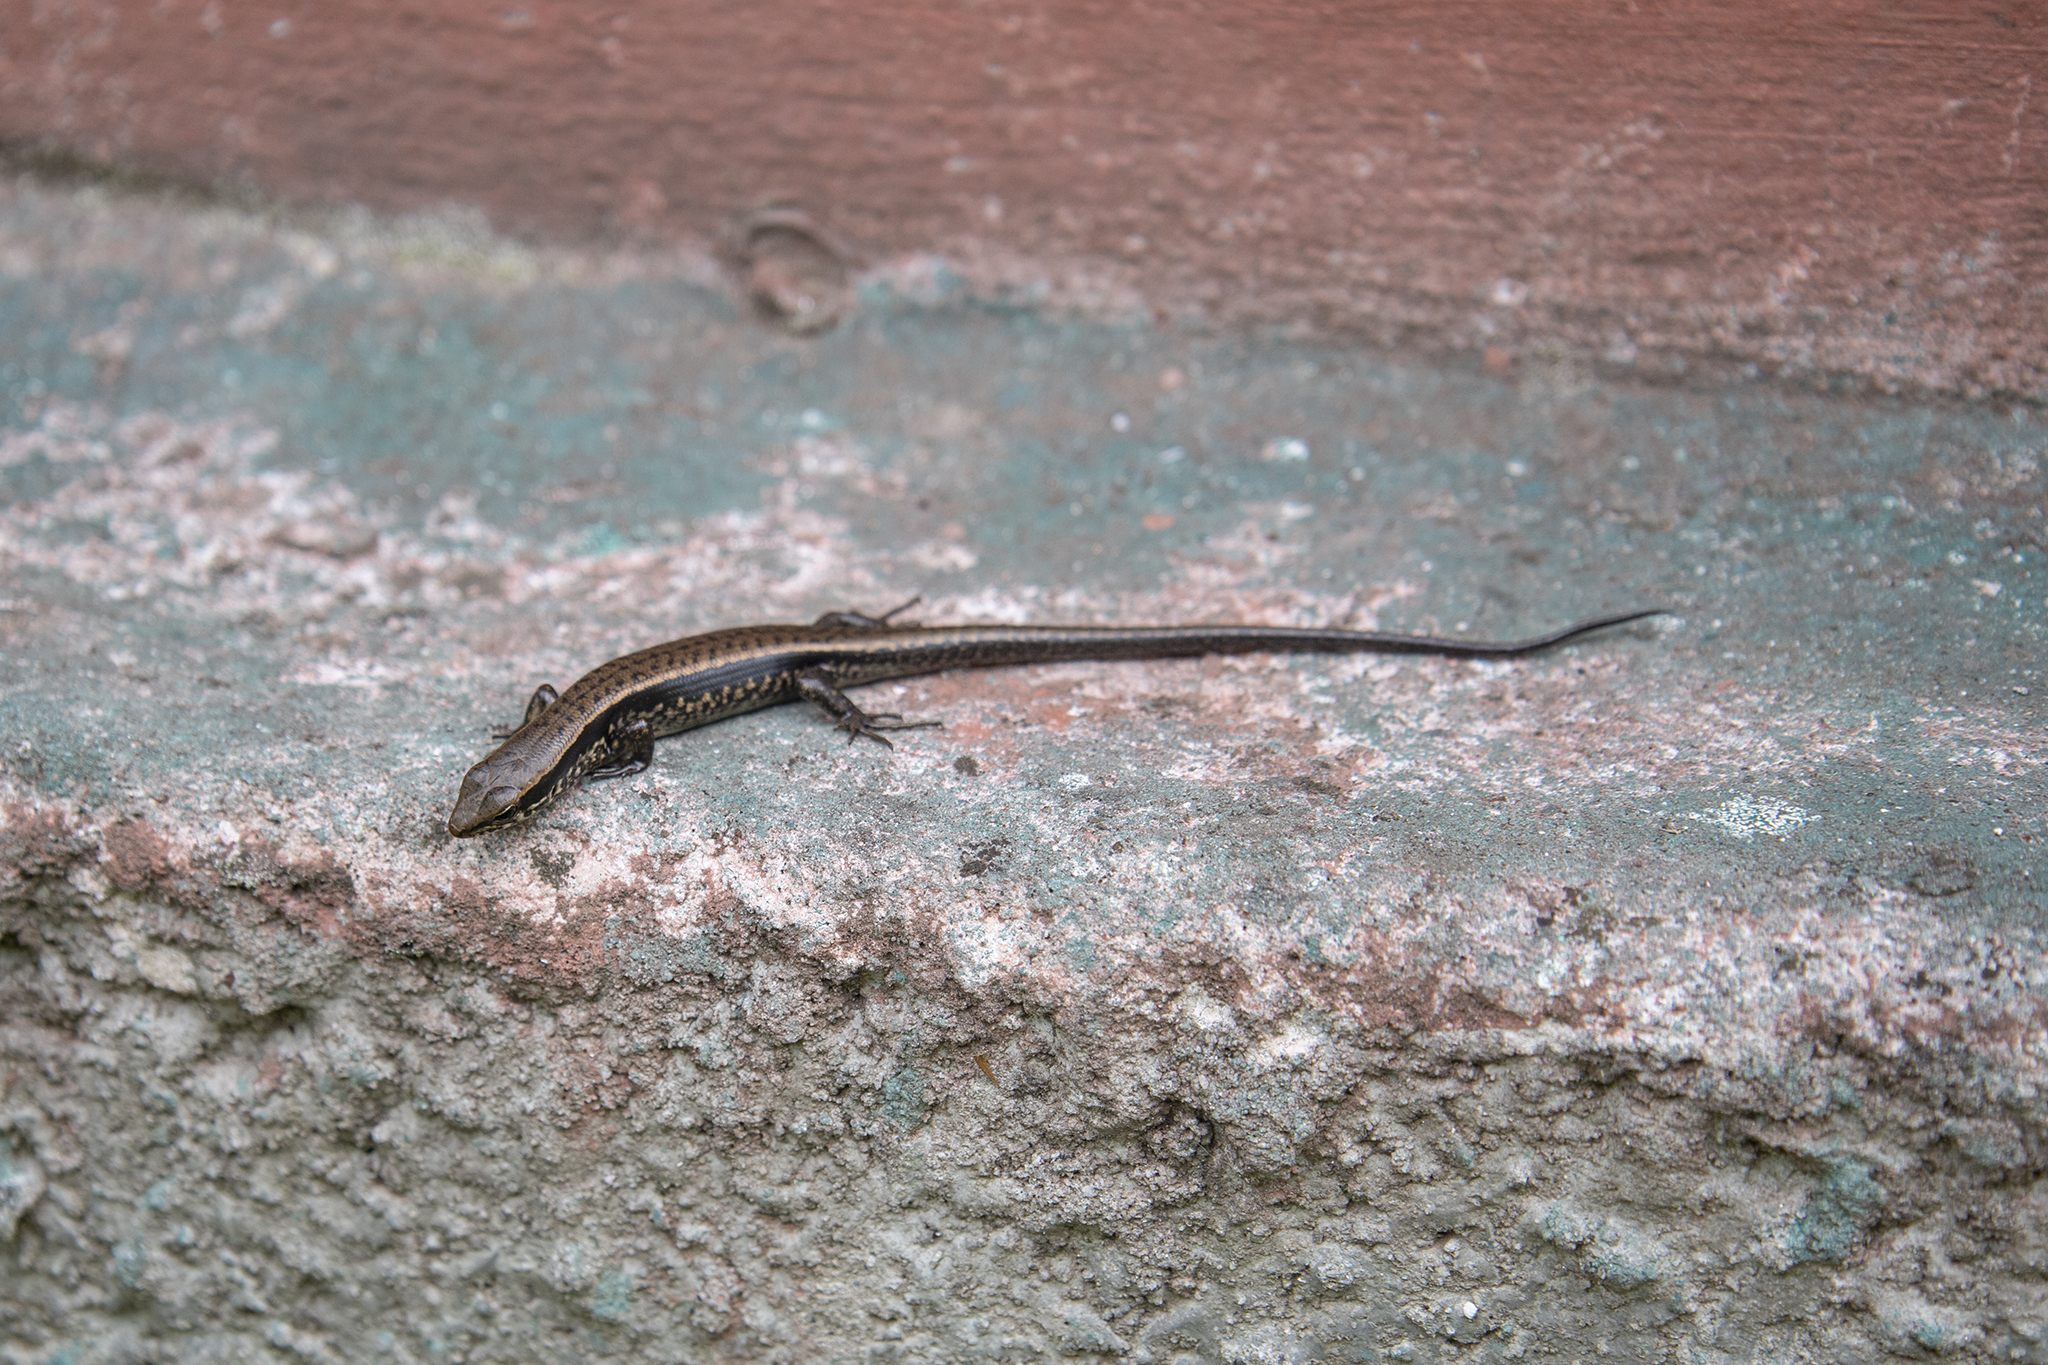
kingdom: Animalia
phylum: Chordata
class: Squamata
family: Scincidae
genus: Sphenomorphus
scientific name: Sphenomorphus maculatus
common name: Maculated forest skink
